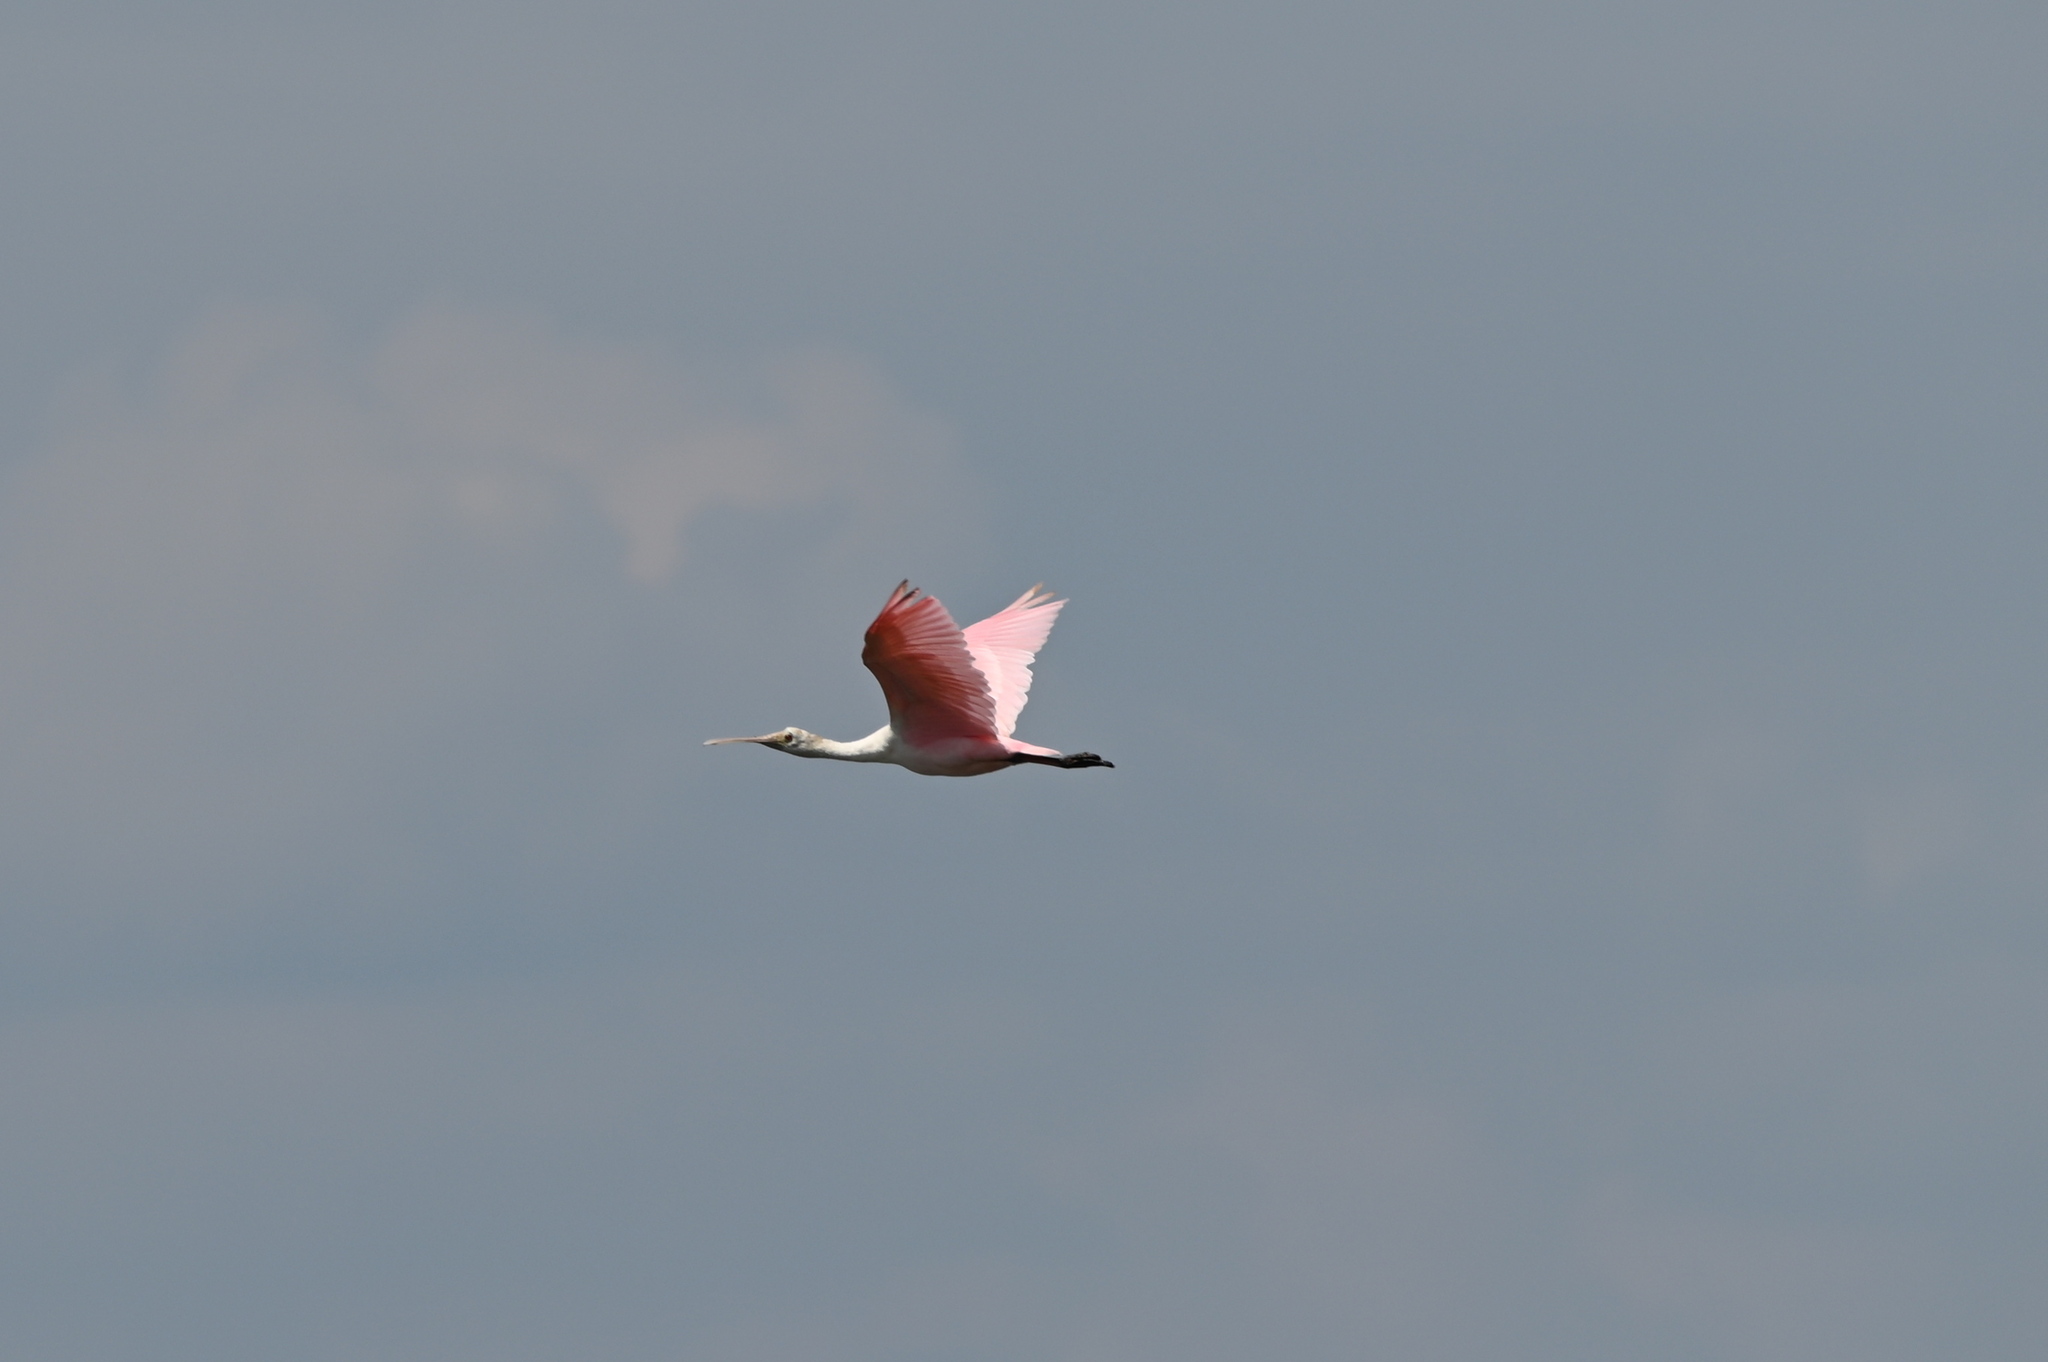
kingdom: Animalia
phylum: Chordata
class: Aves
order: Pelecaniformes
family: Threskiornithidae
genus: Platalea
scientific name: Platalea ajaja
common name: Roseate spoonbill
